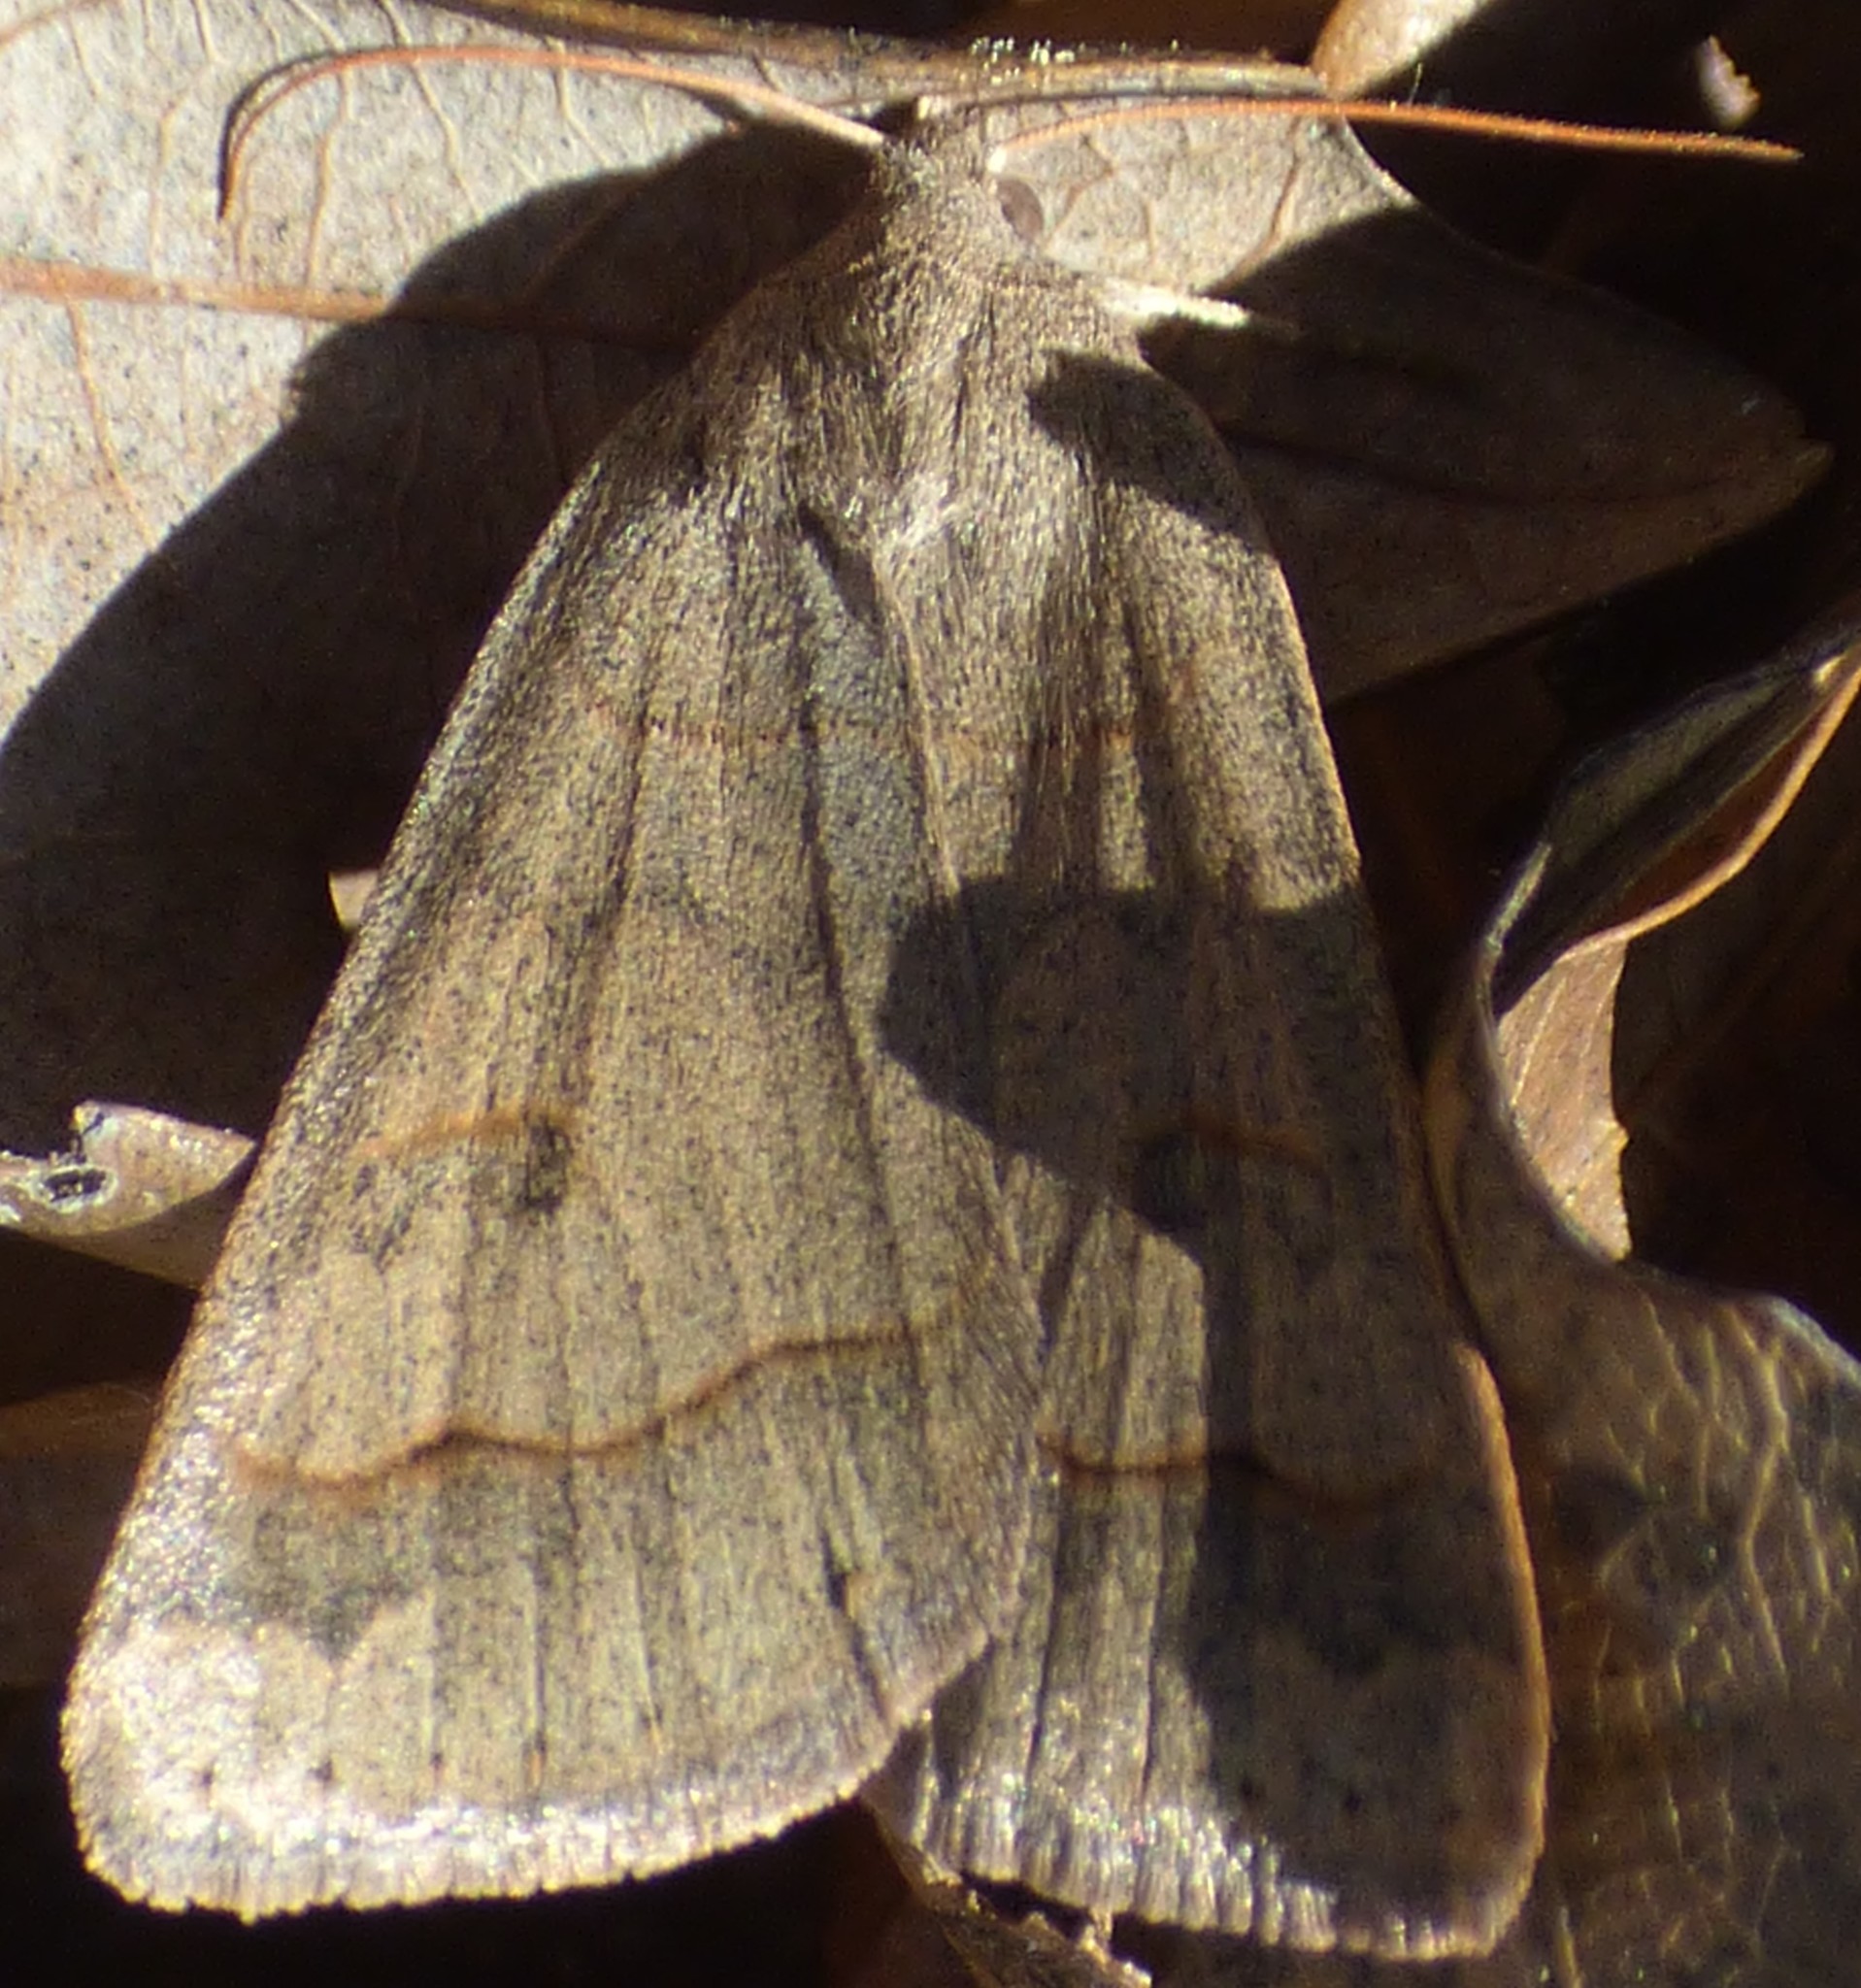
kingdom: Animalia
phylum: Arthropoda
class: Insecta
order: Lepidoptera
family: Erebidae
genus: Phoberia
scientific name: Phoberia atomaris
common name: Common oak moth
